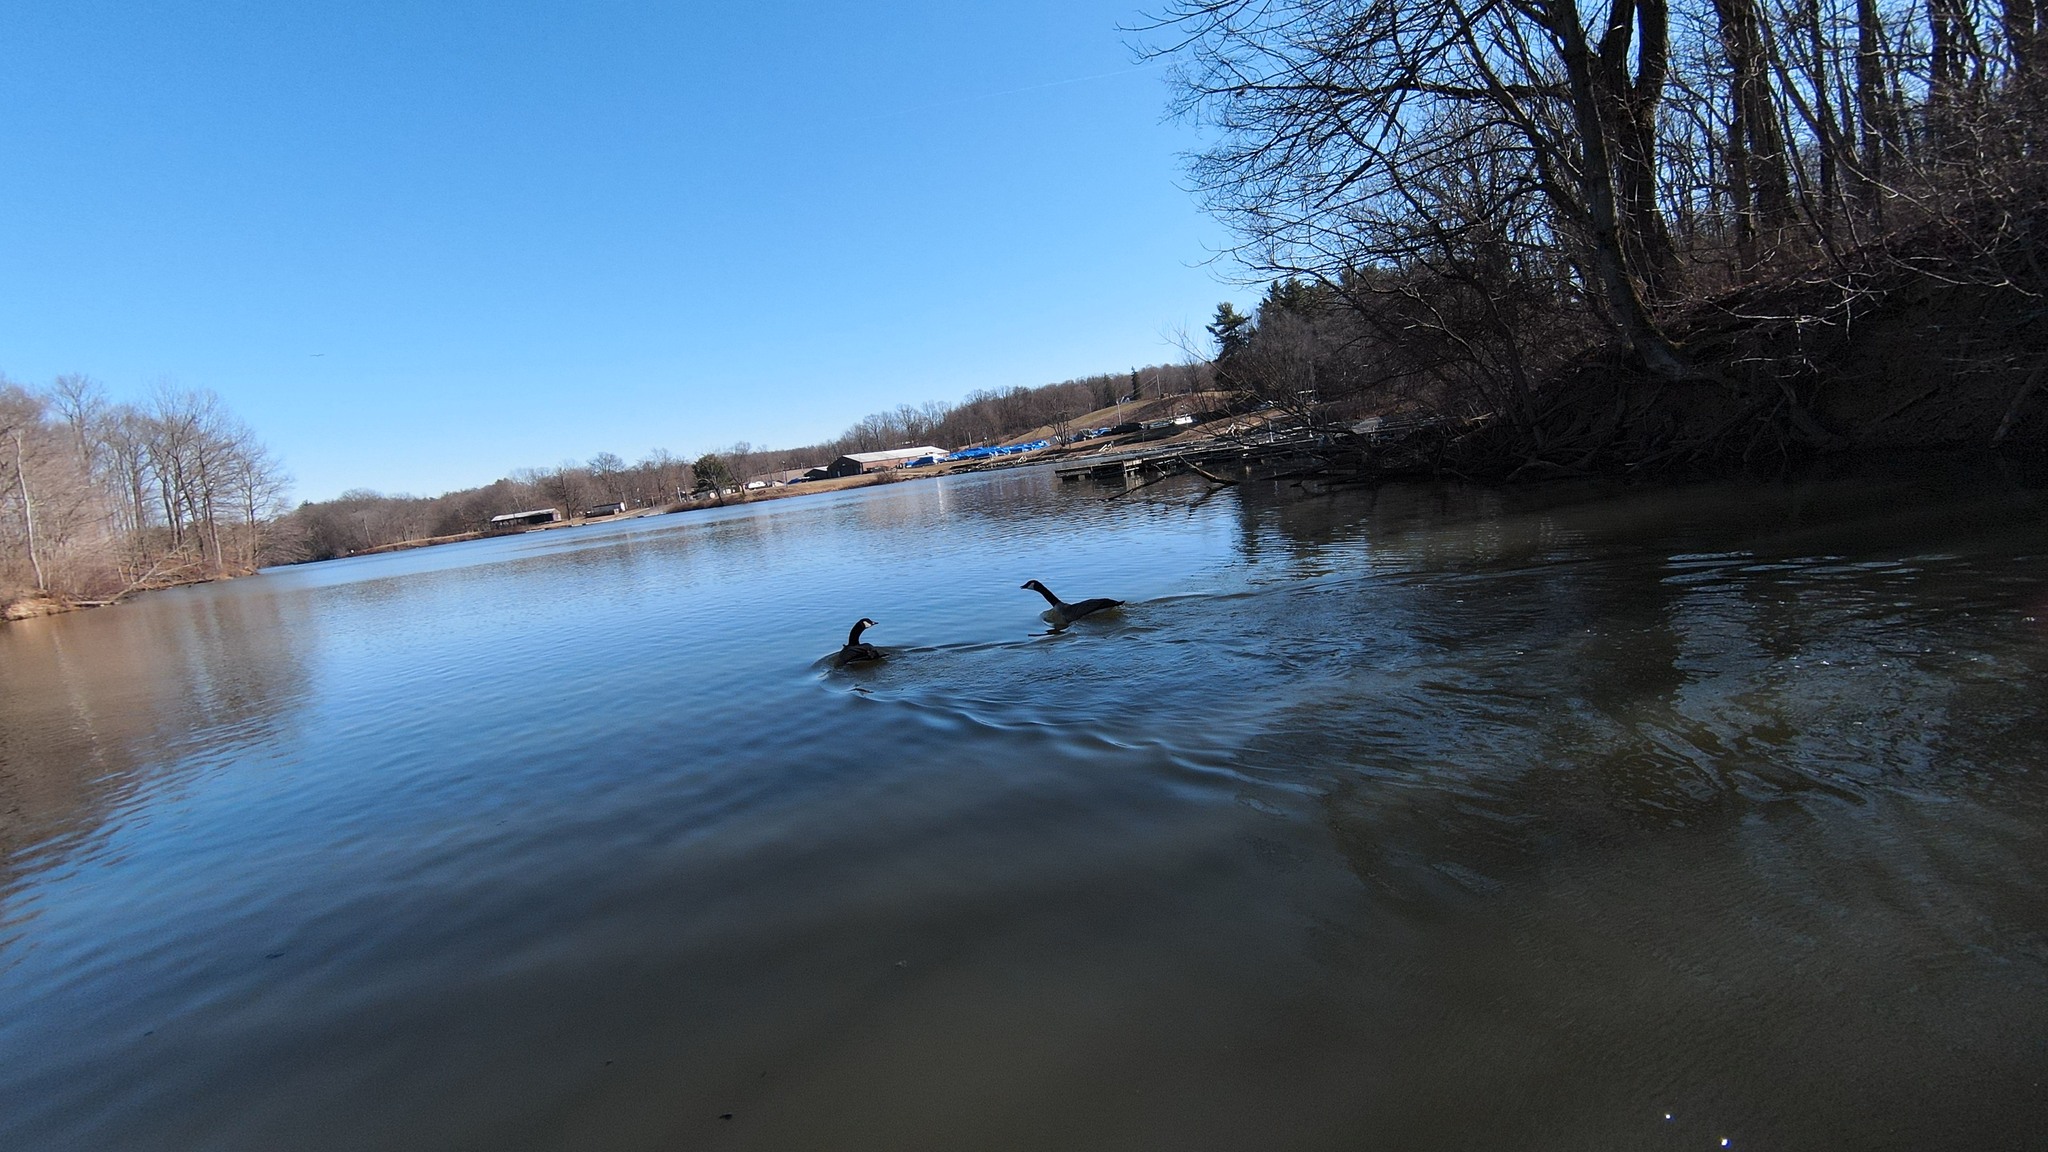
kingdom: Animalia
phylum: Chordata
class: Aves
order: Anseriformes
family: Anatidae
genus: Branta
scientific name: Branta canadensis
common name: Canada goose
